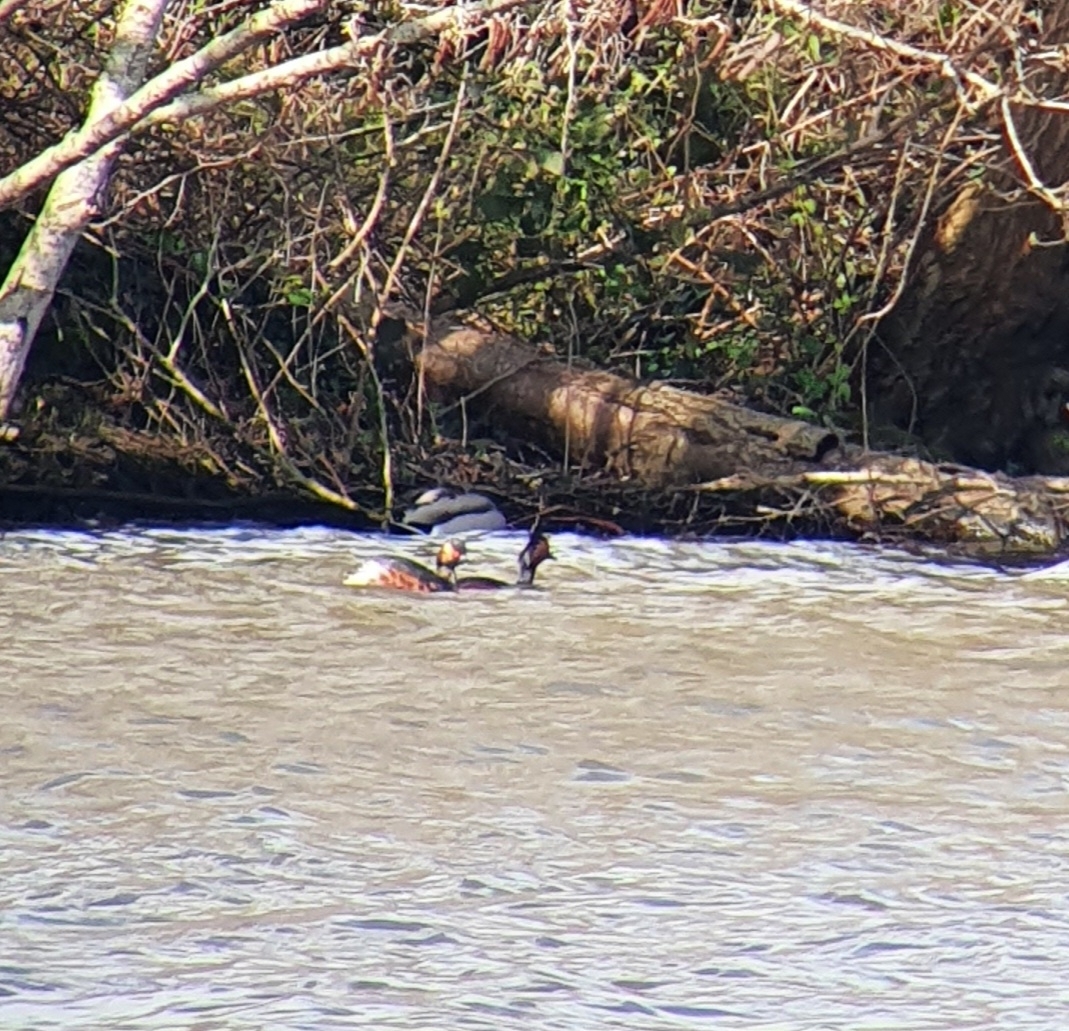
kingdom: Animalia
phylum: Chordata
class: Aves
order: Podicipediformes
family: Podicipedidae
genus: Podiceps
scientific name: Podiceps nigricollis
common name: Black-necked grebe
